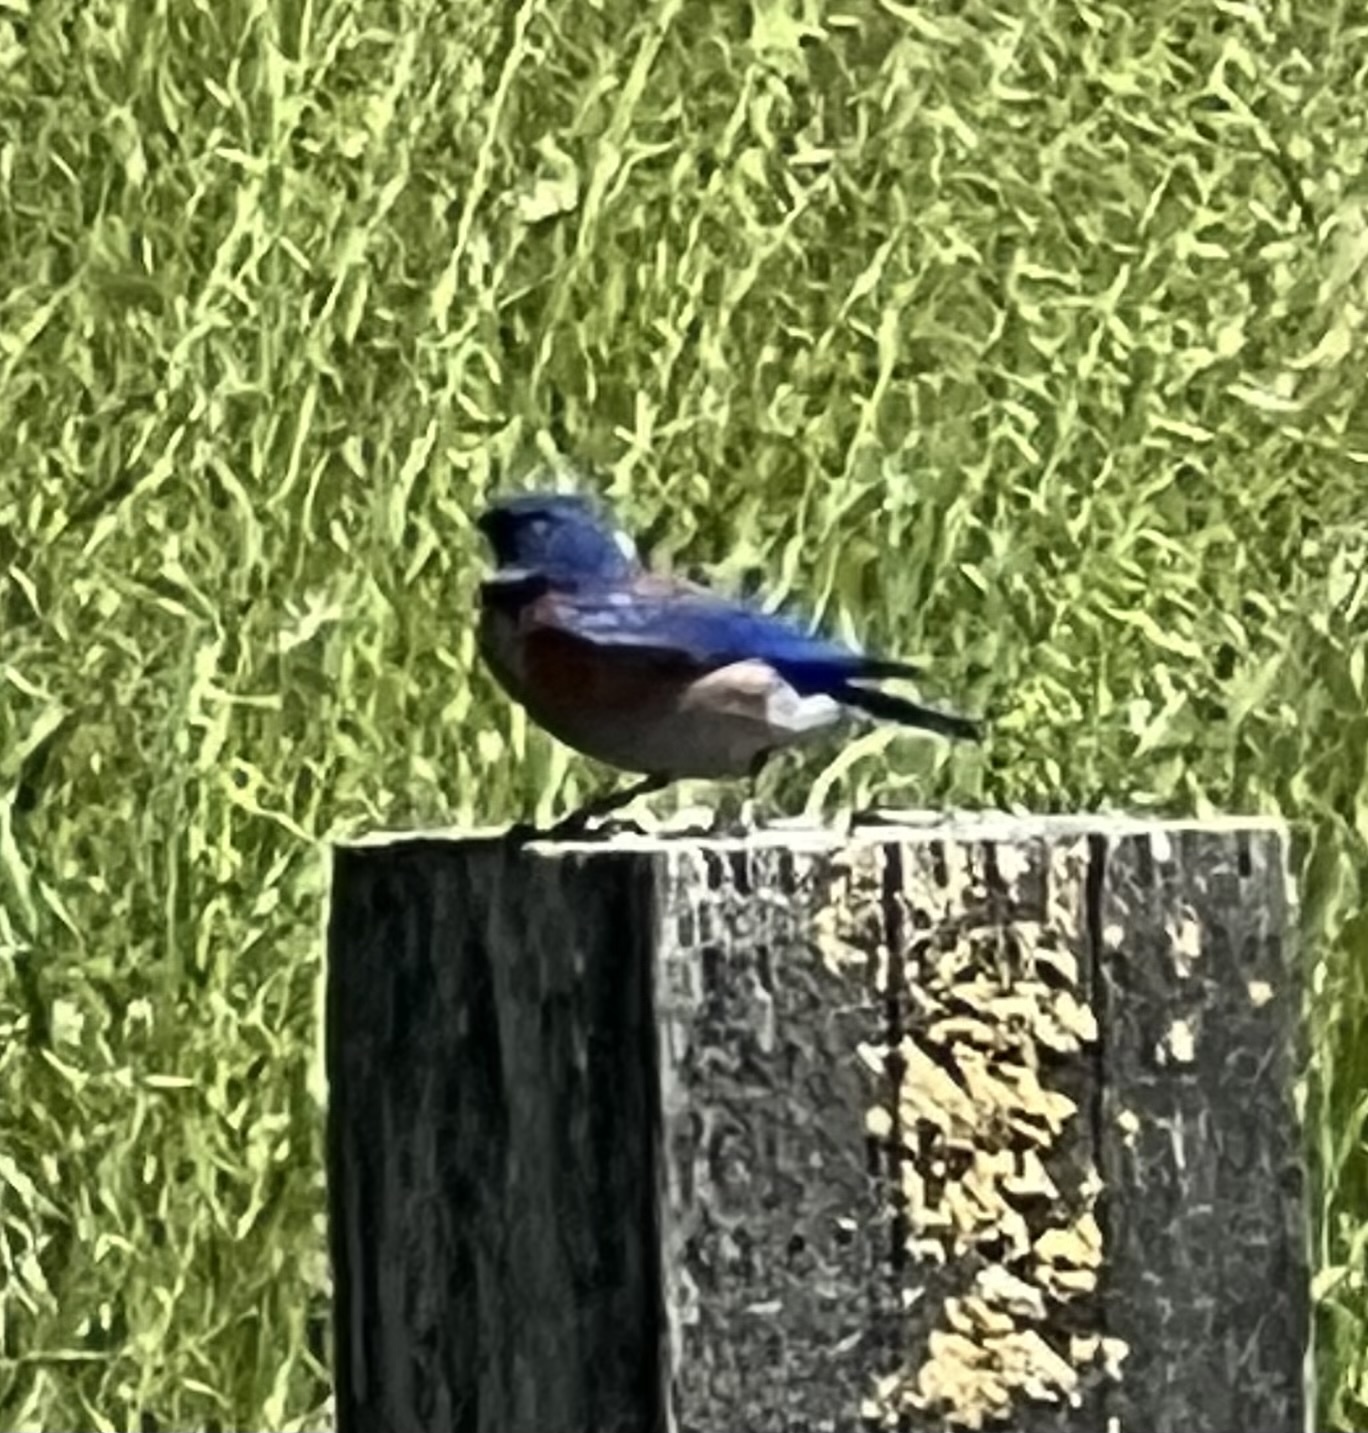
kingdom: Animalia
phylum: Chordata
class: Aves
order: Passeriformes
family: Turdidae
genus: Sialia
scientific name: Sialia mexicana
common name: Western bluebird
